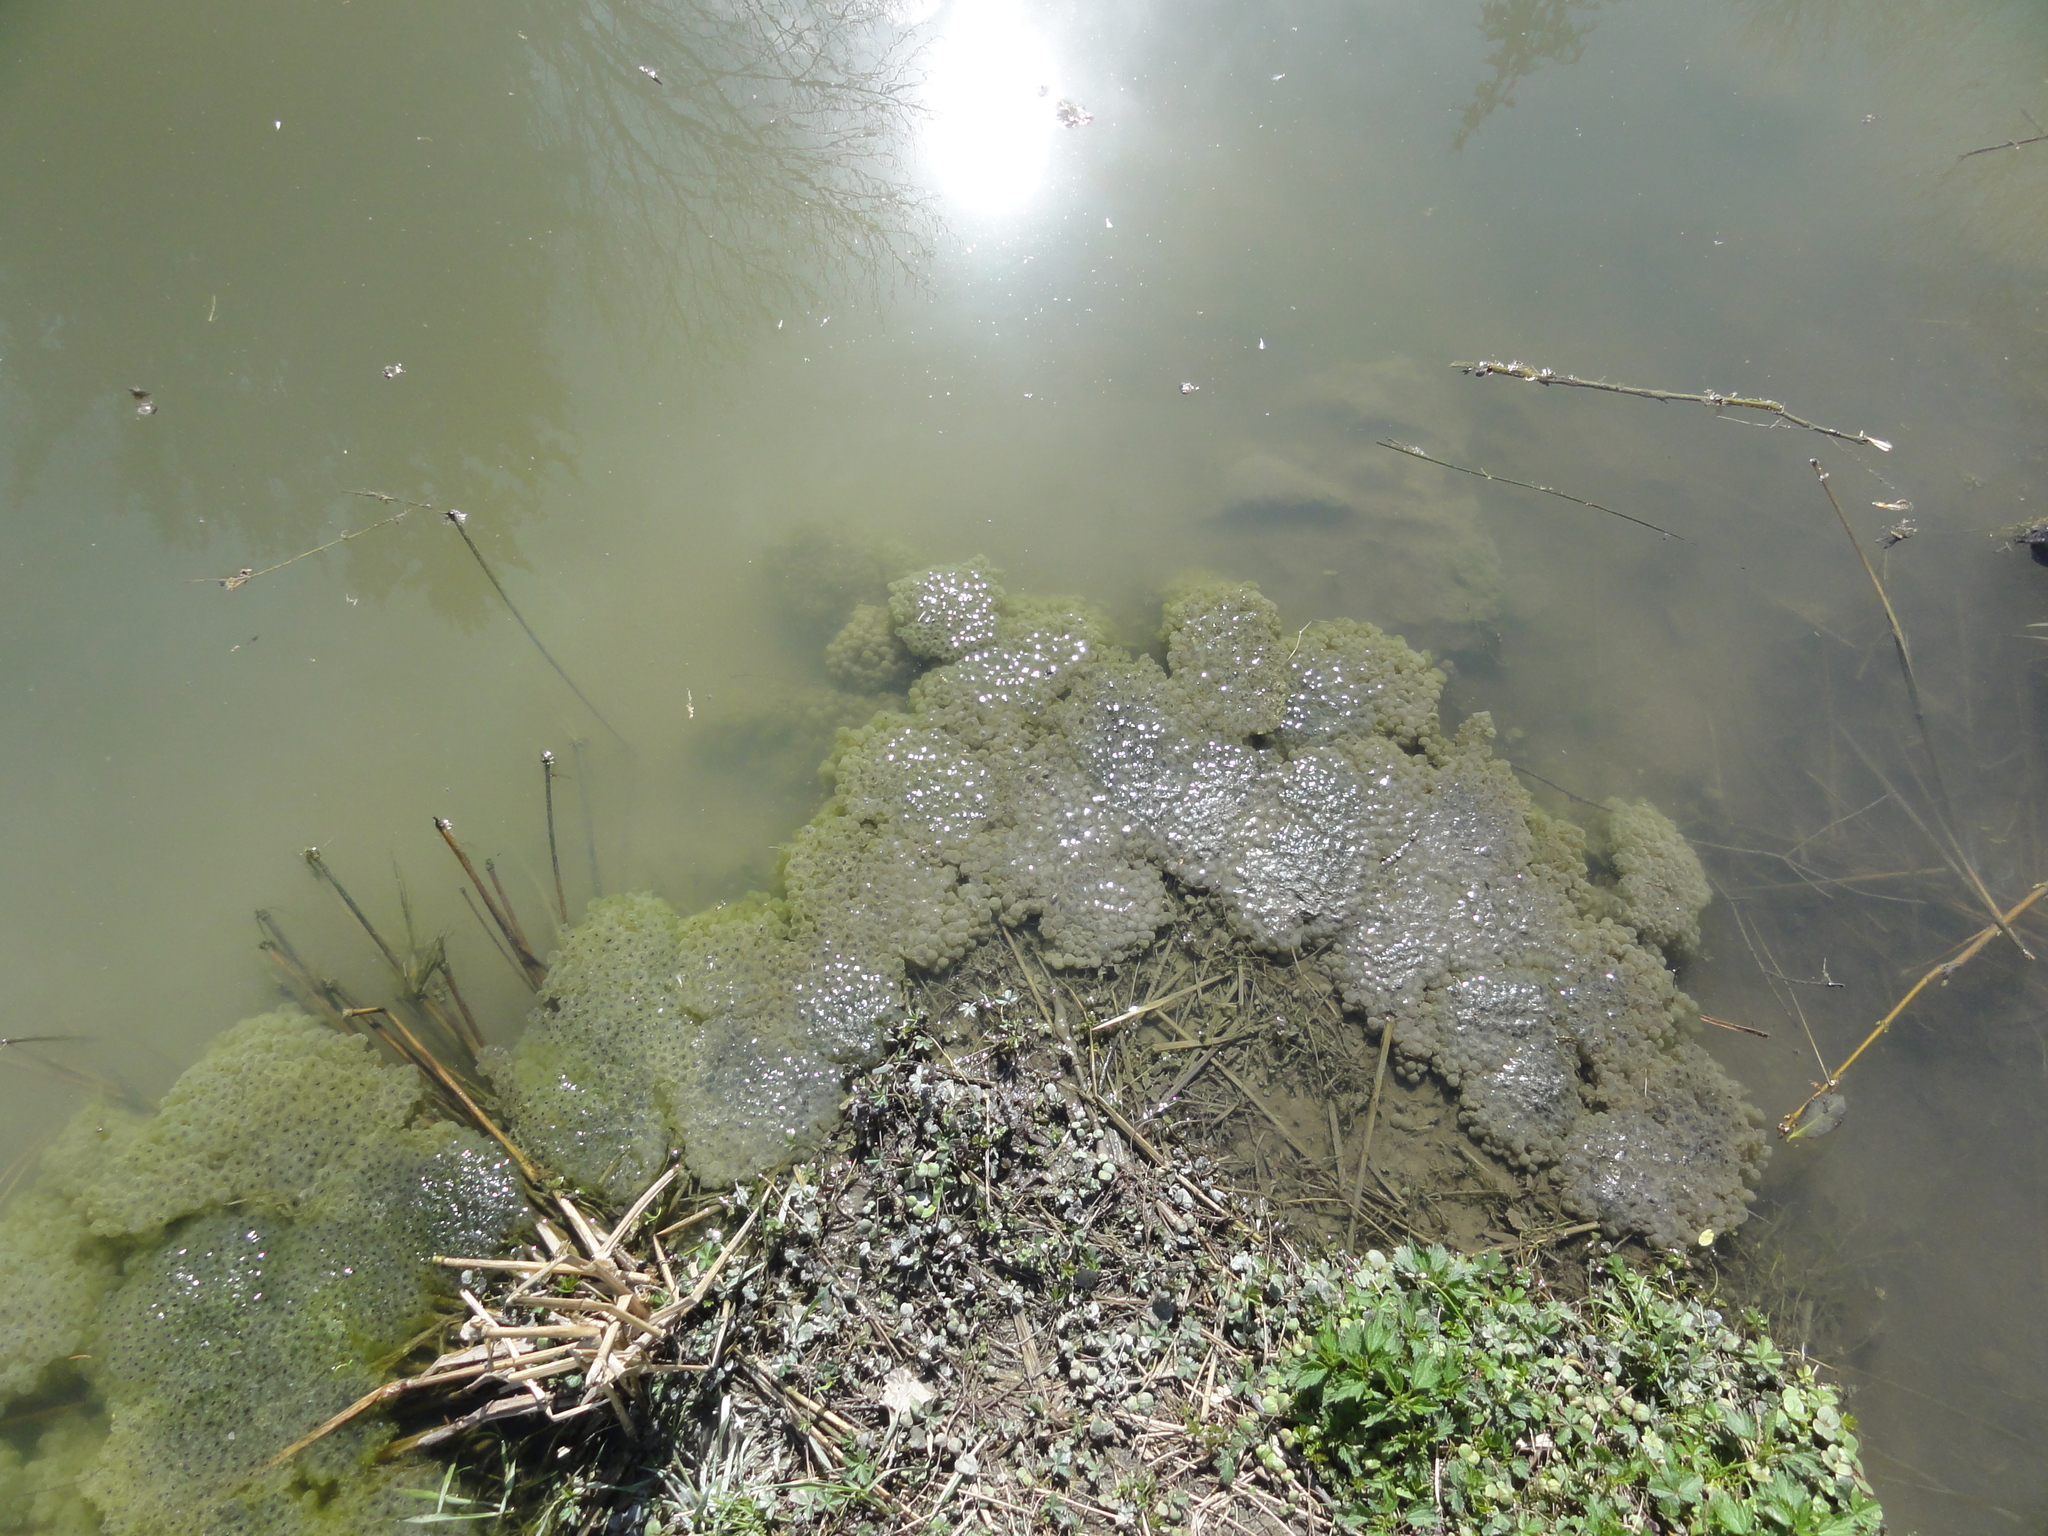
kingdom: Animalia
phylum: Chordata
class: Amphibia
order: Anura
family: Ranidae
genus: Rana
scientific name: Rana temporaria
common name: Common frog
